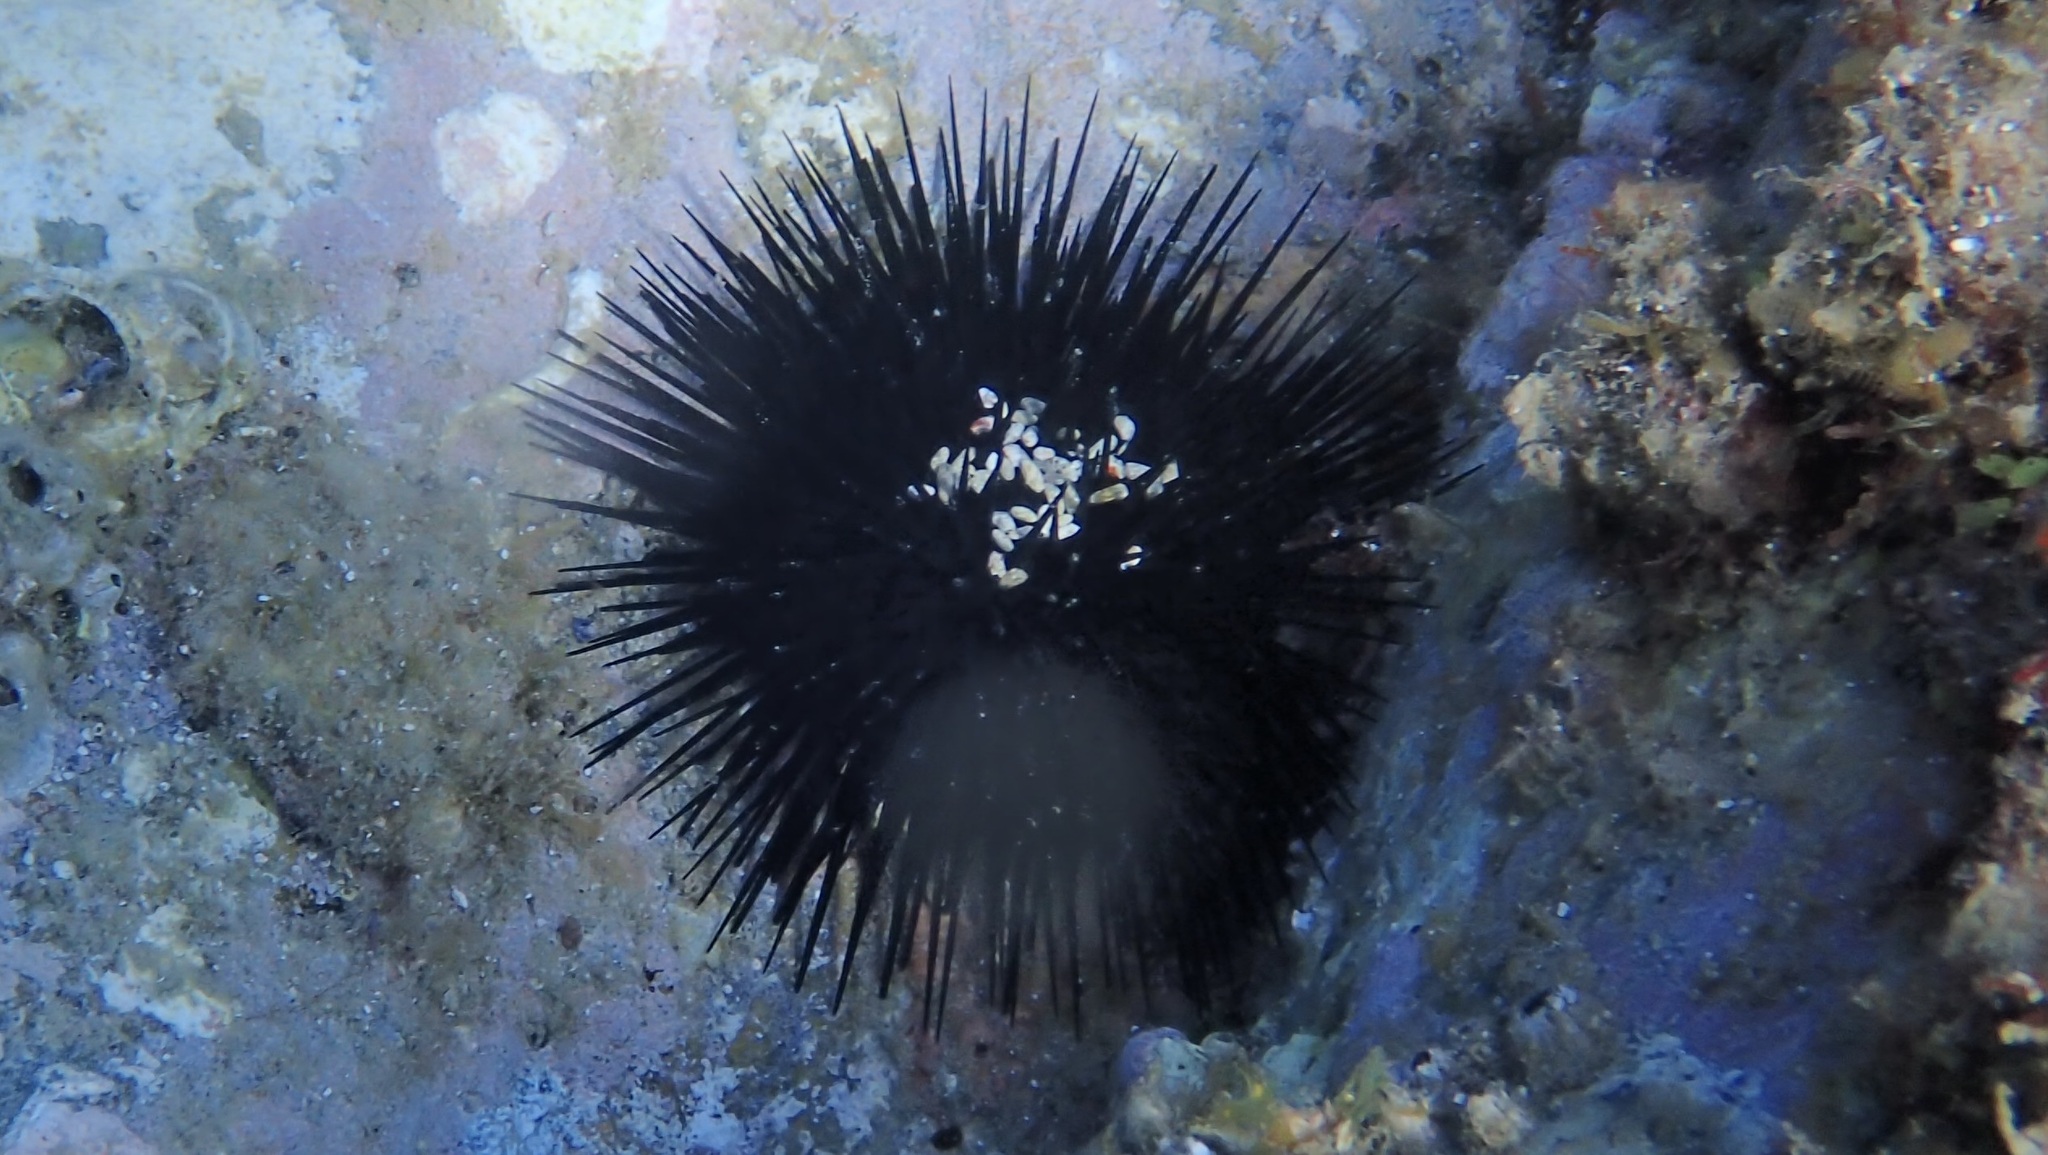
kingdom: Animalia
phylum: Echinodermata
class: Echinoidea
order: Arbacioida
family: Arbaciidae
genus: Arbacia
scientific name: Arbacia lixula
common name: Black sea urchin
